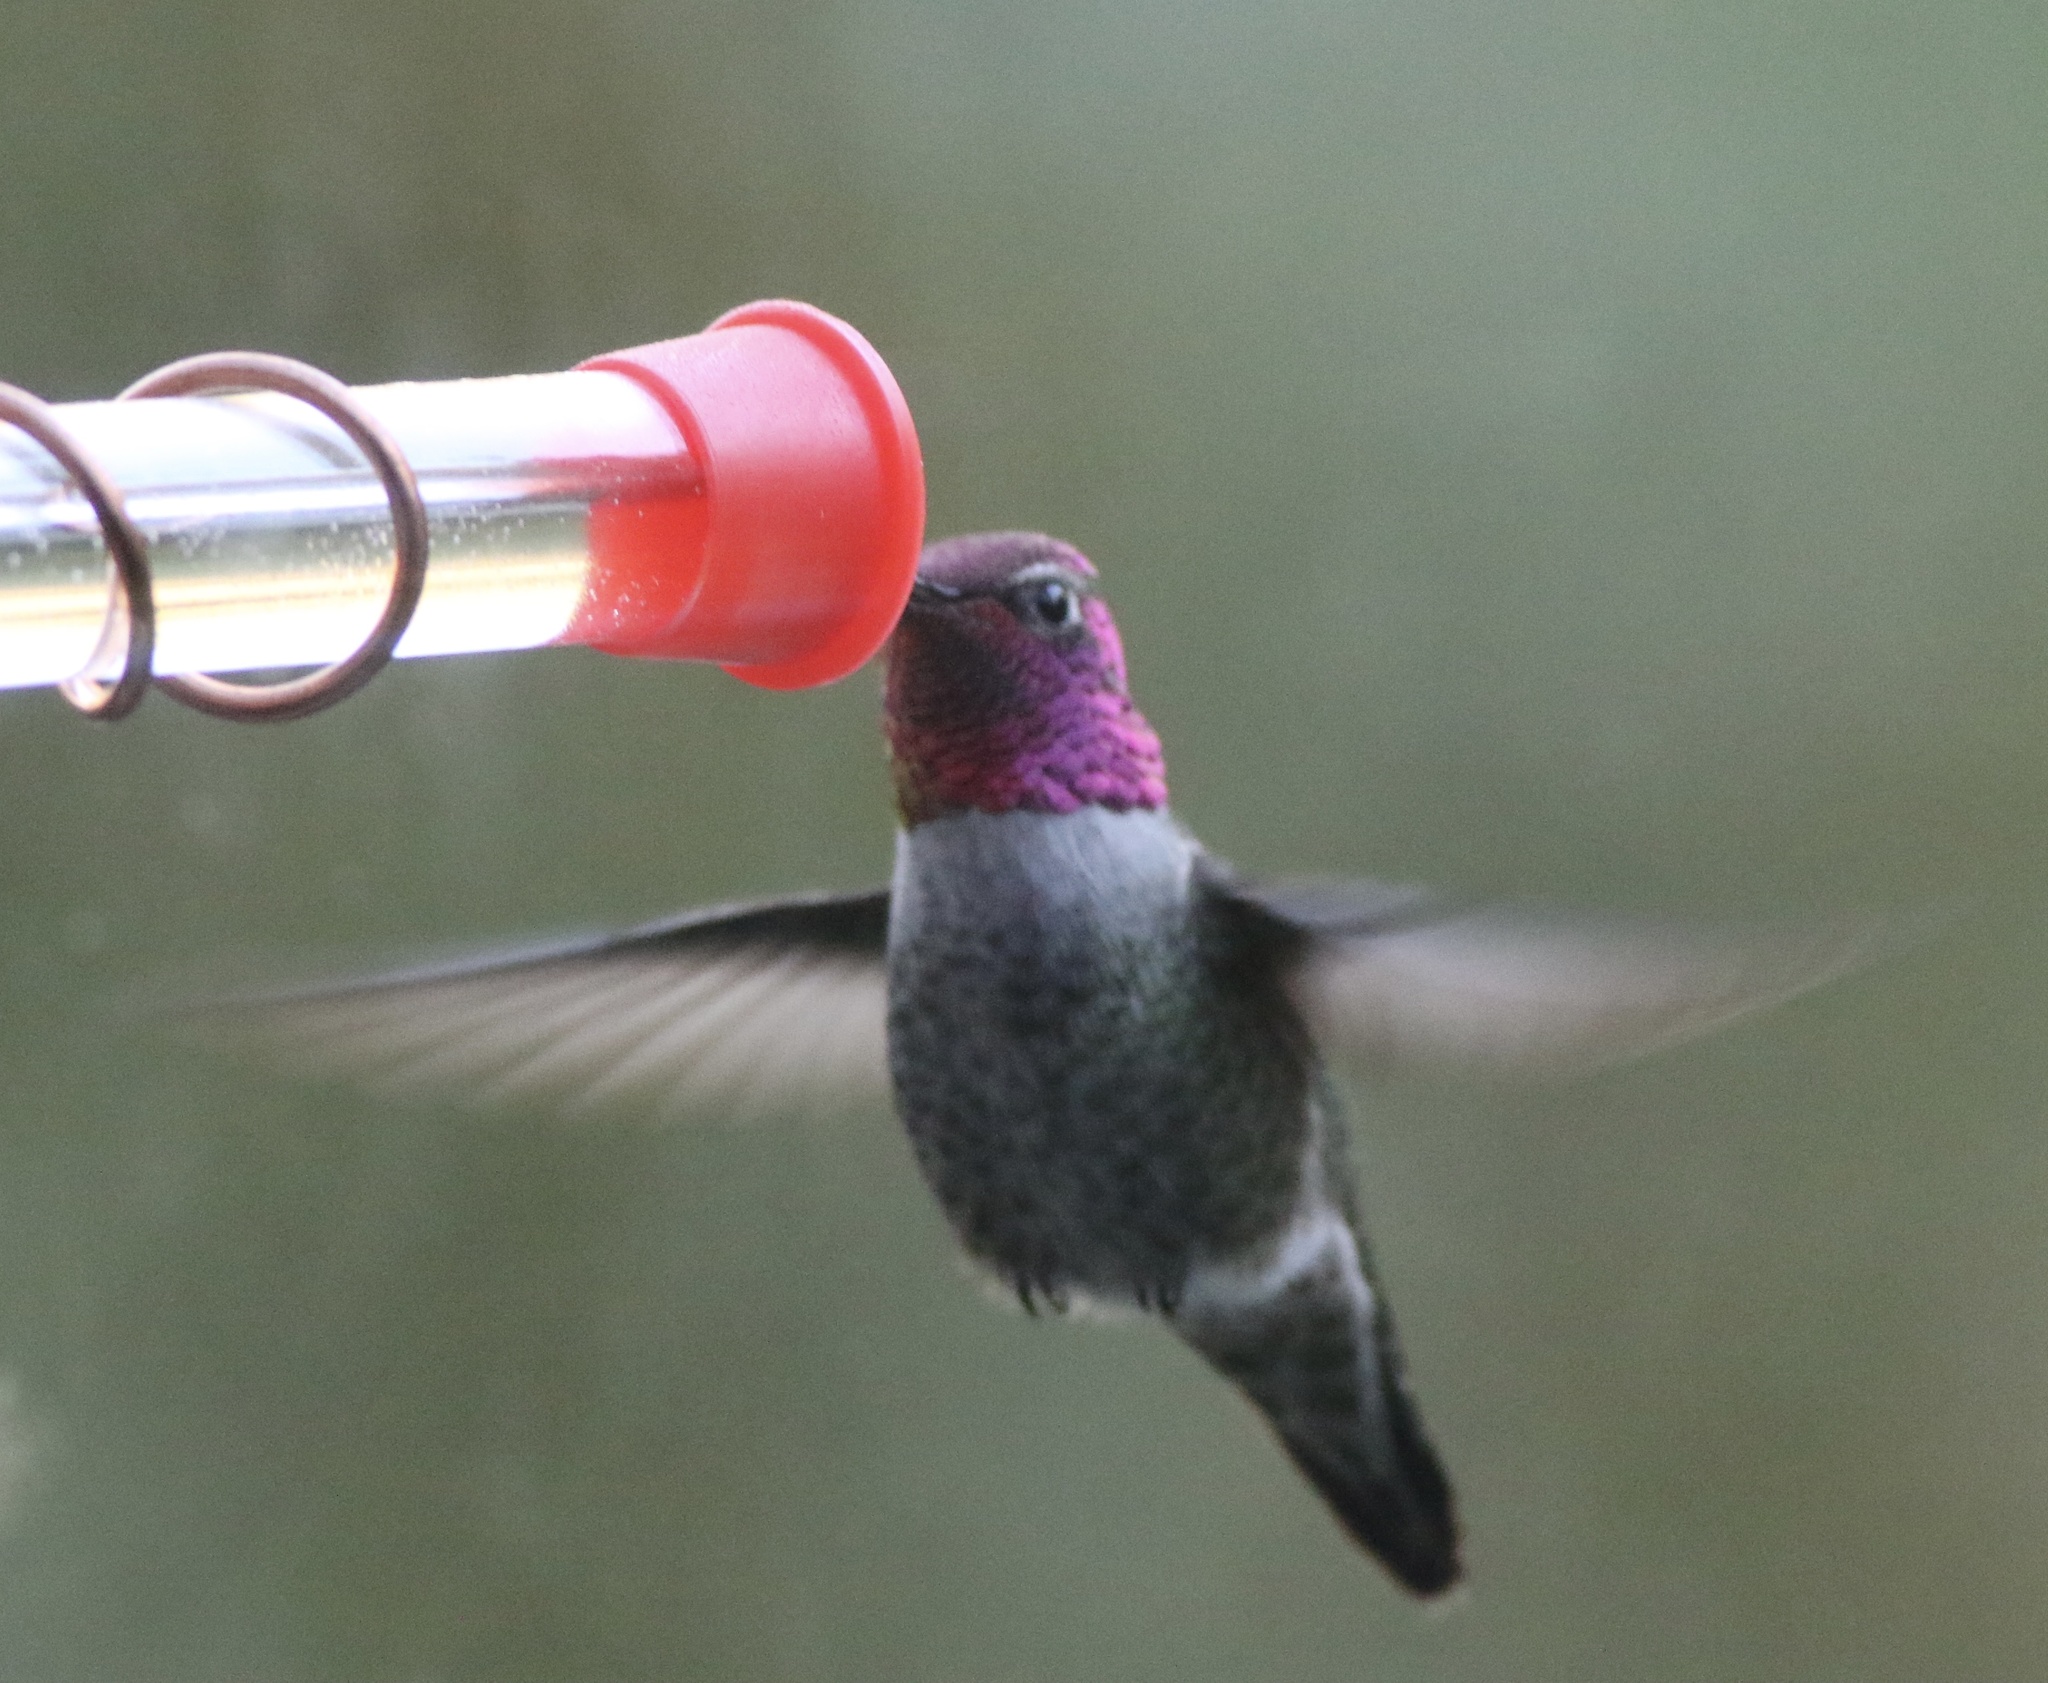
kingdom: Animalia
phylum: Chordata
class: Aves
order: Apodiformes
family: Trochilidae
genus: Calypte
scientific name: Calypte anna
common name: Anna's hummingbird
